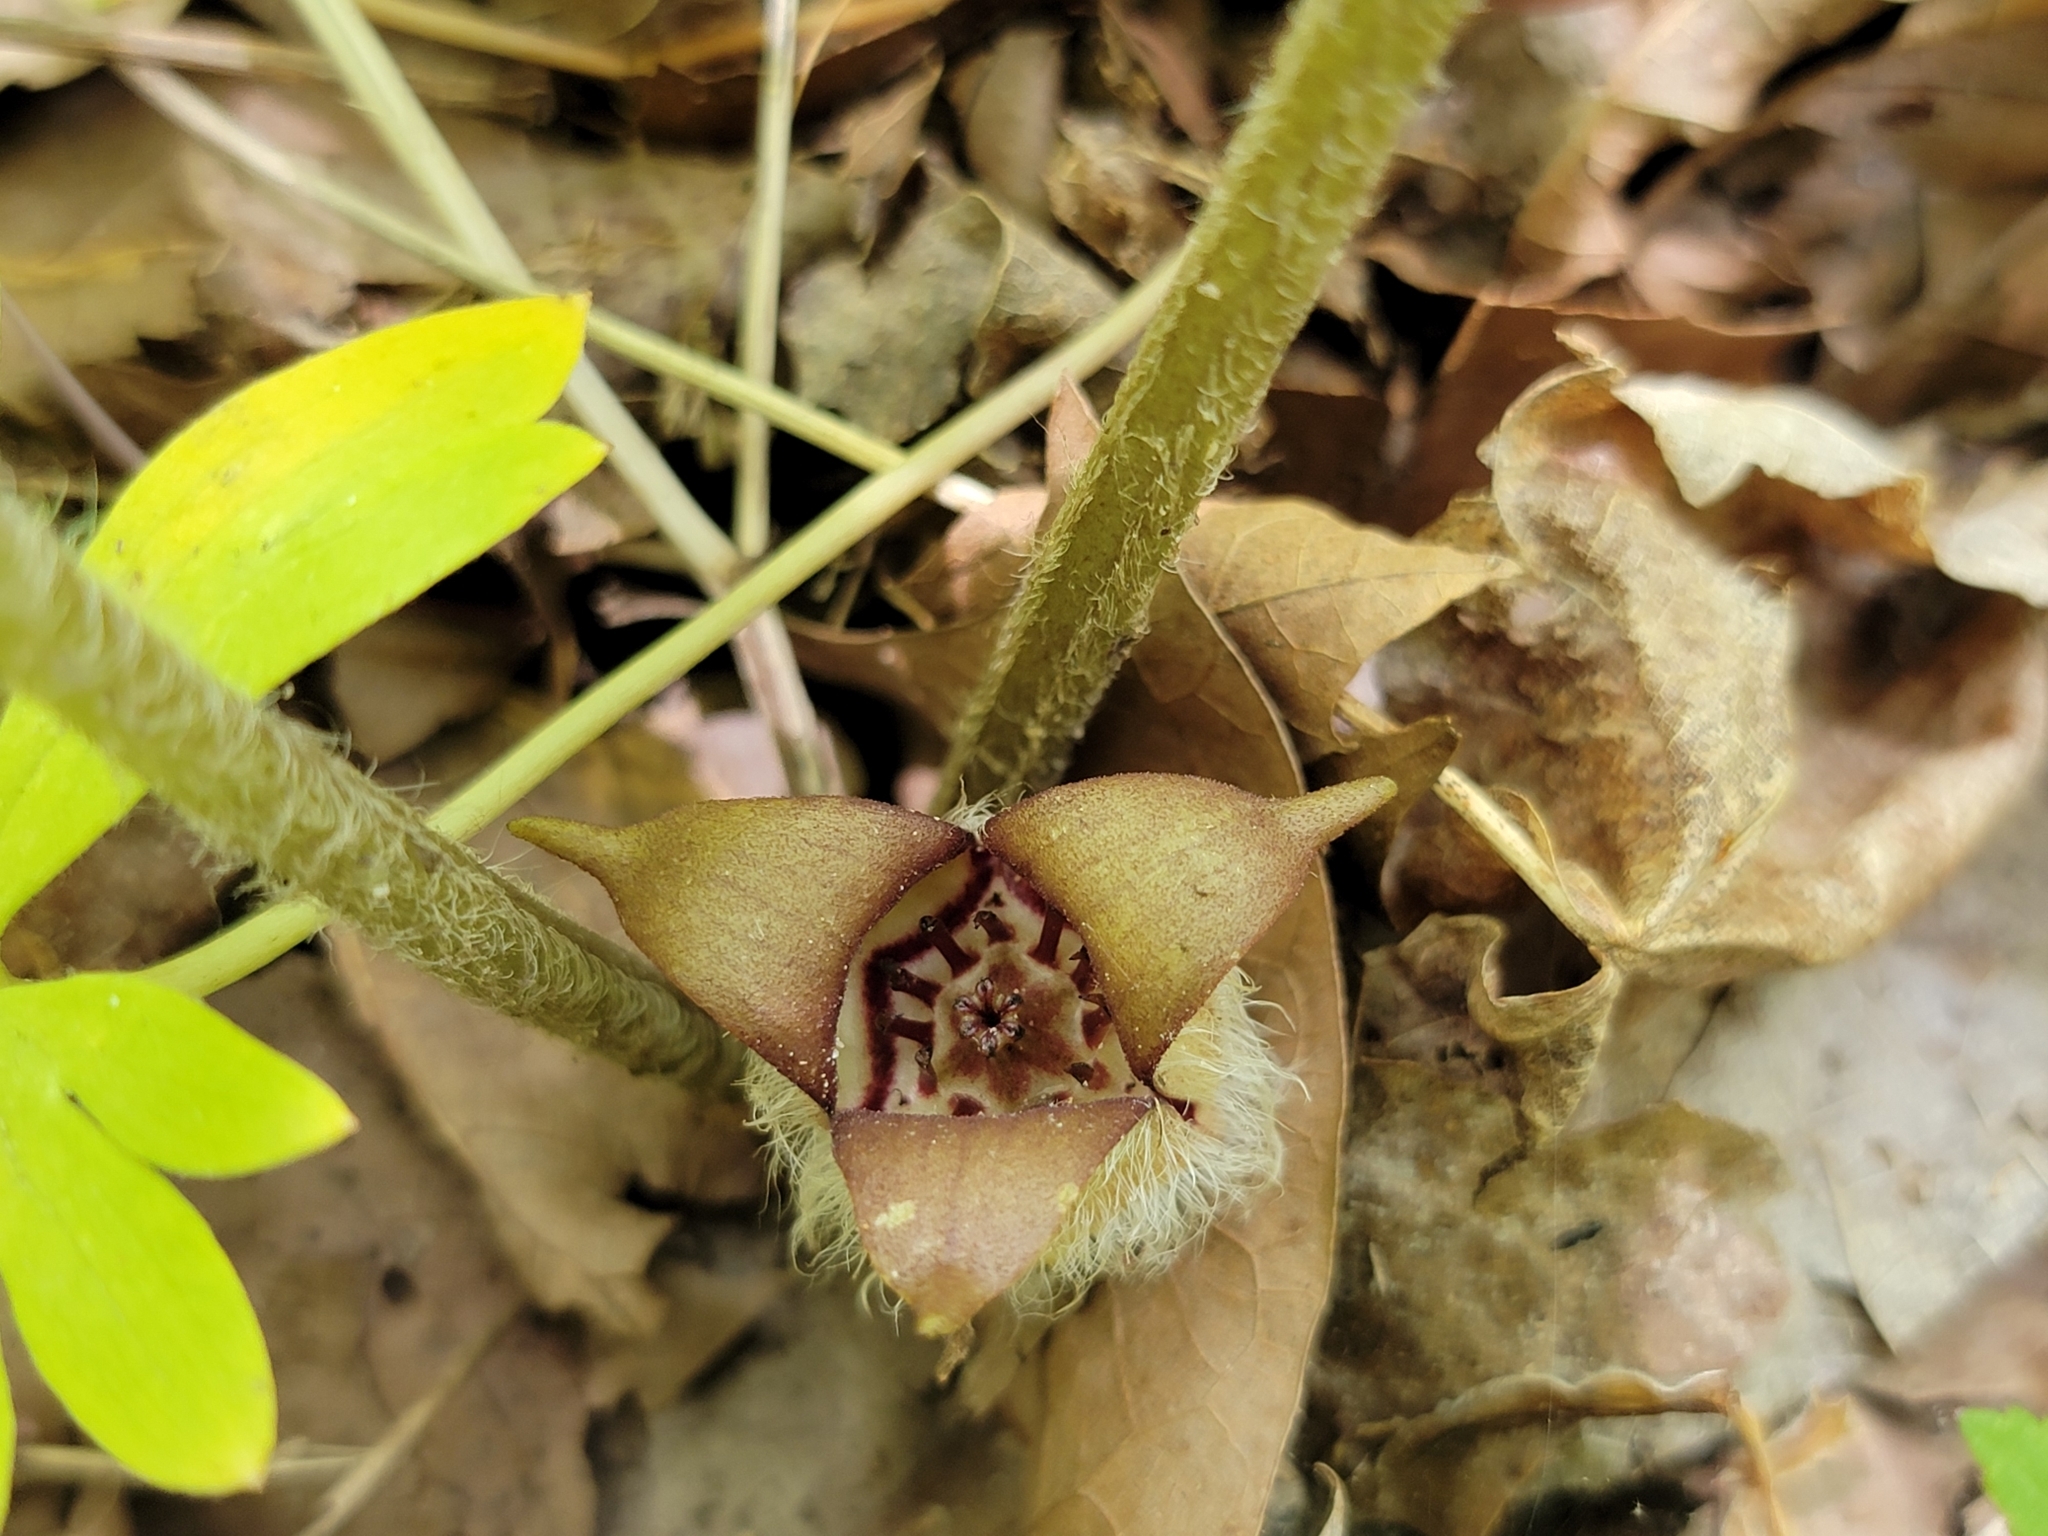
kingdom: Plantae
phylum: Tracheophyta
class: Magnoliopsida
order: Piperales
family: Aristolochiaceae
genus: Asarum
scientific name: Asarum canadense
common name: Wild ginger
